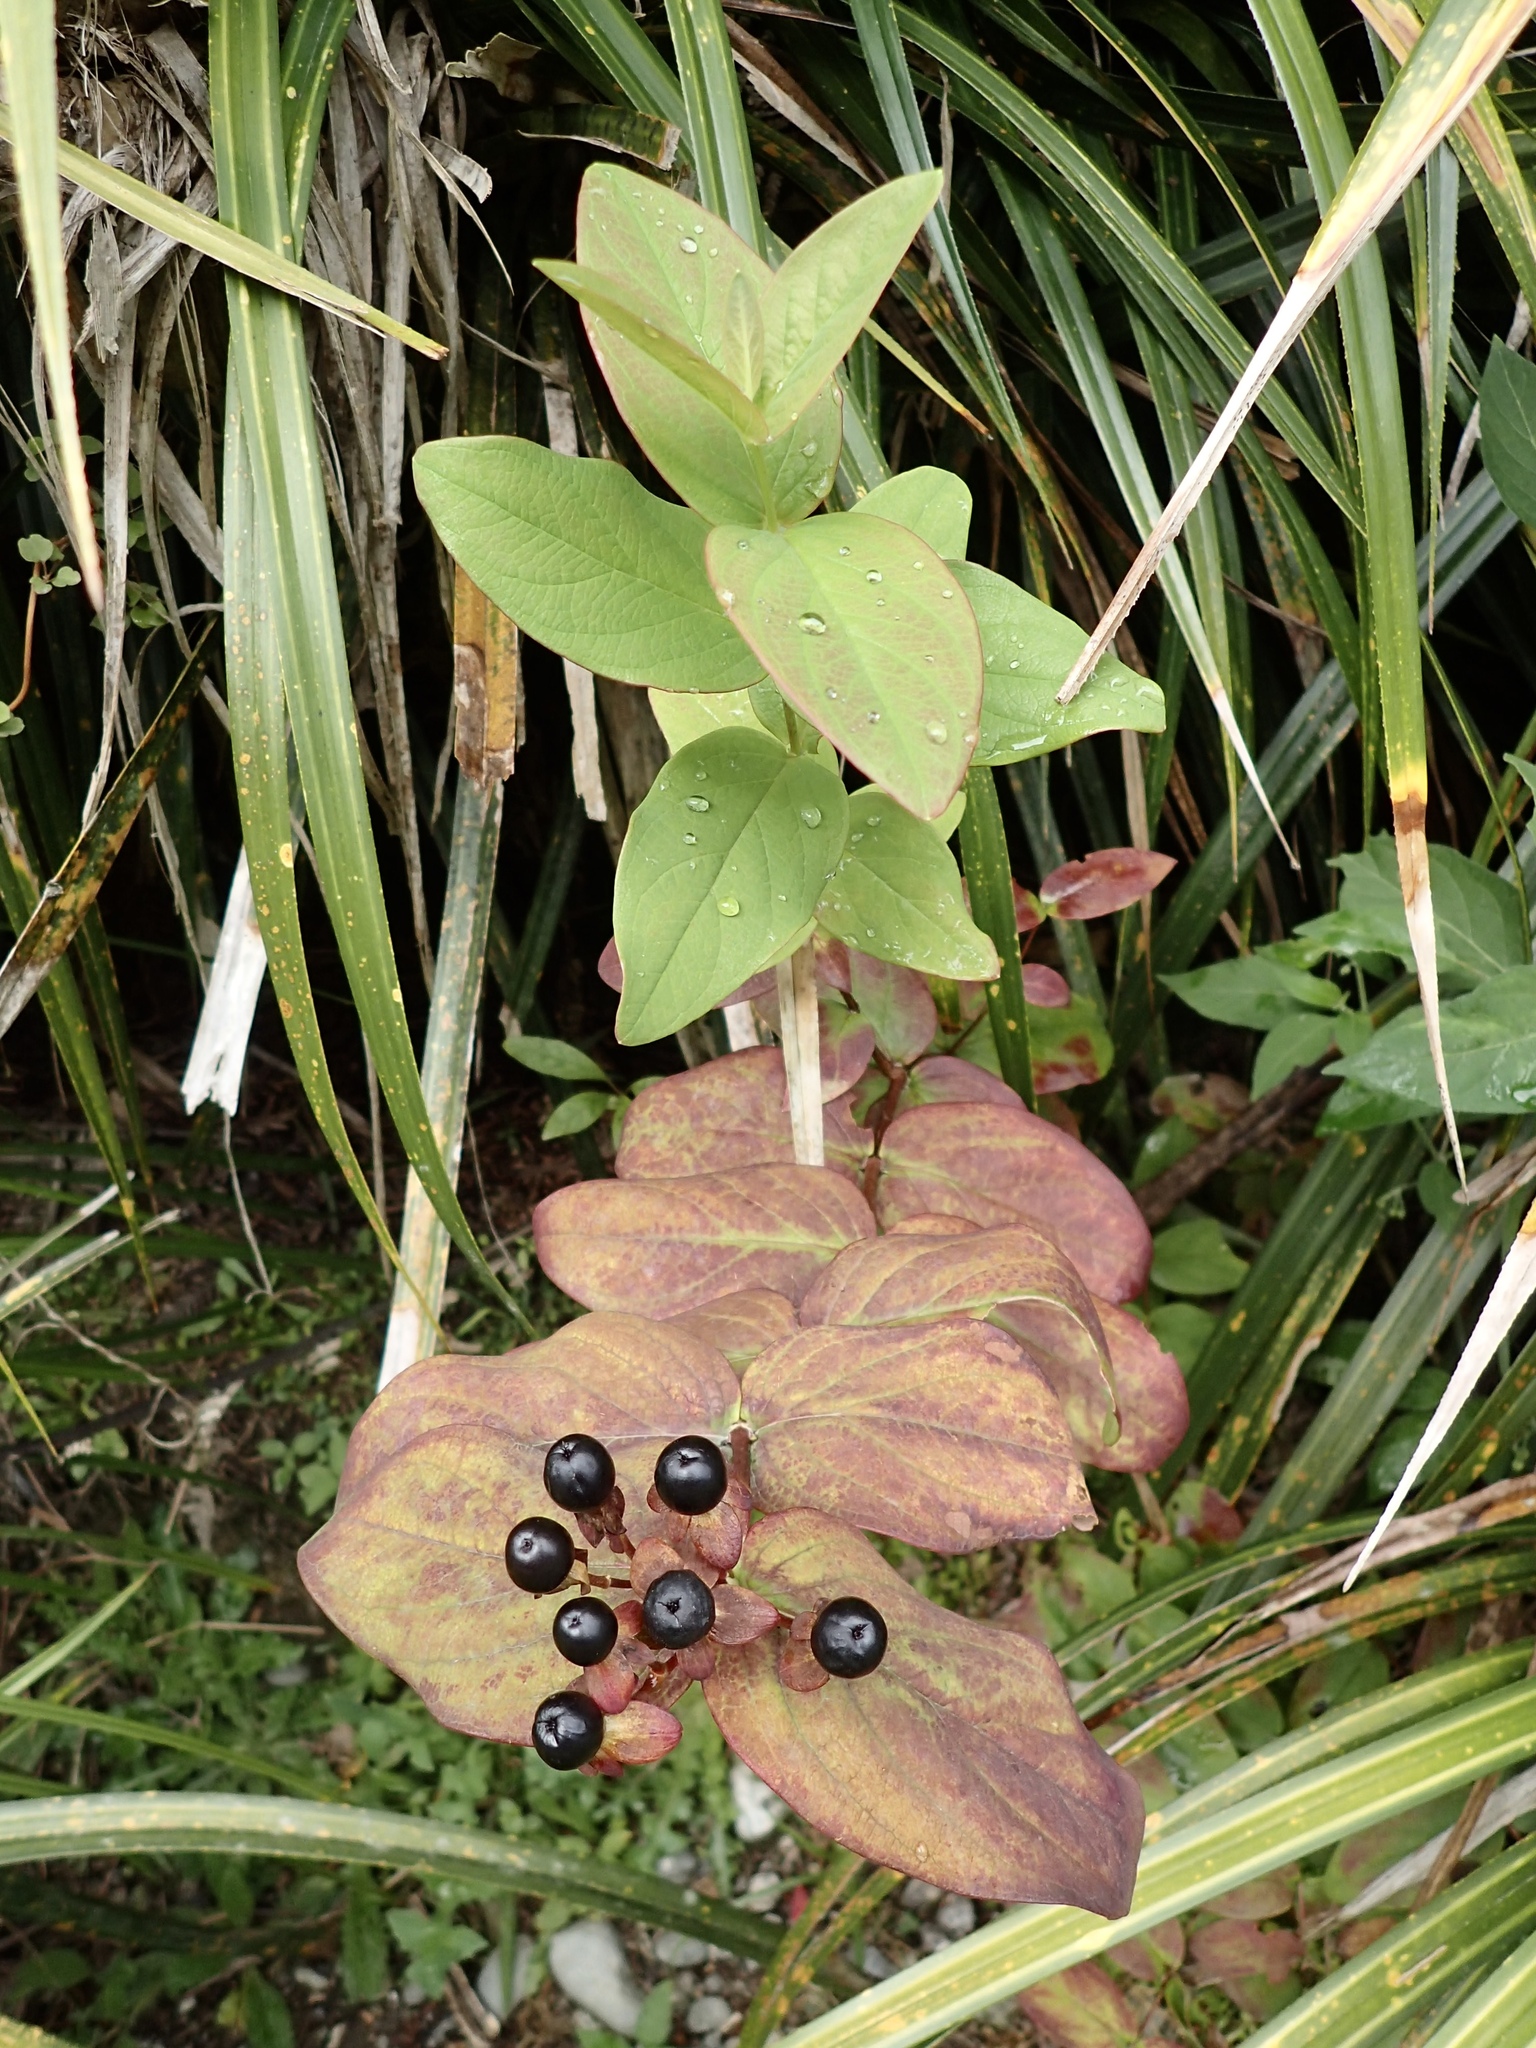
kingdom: Plantae
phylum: Tracheophyta
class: Magnoliopsida
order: Malpighiales
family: Hypericaceae
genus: Hypericum
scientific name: Hypericum androsaemum
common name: Sweet-amber
